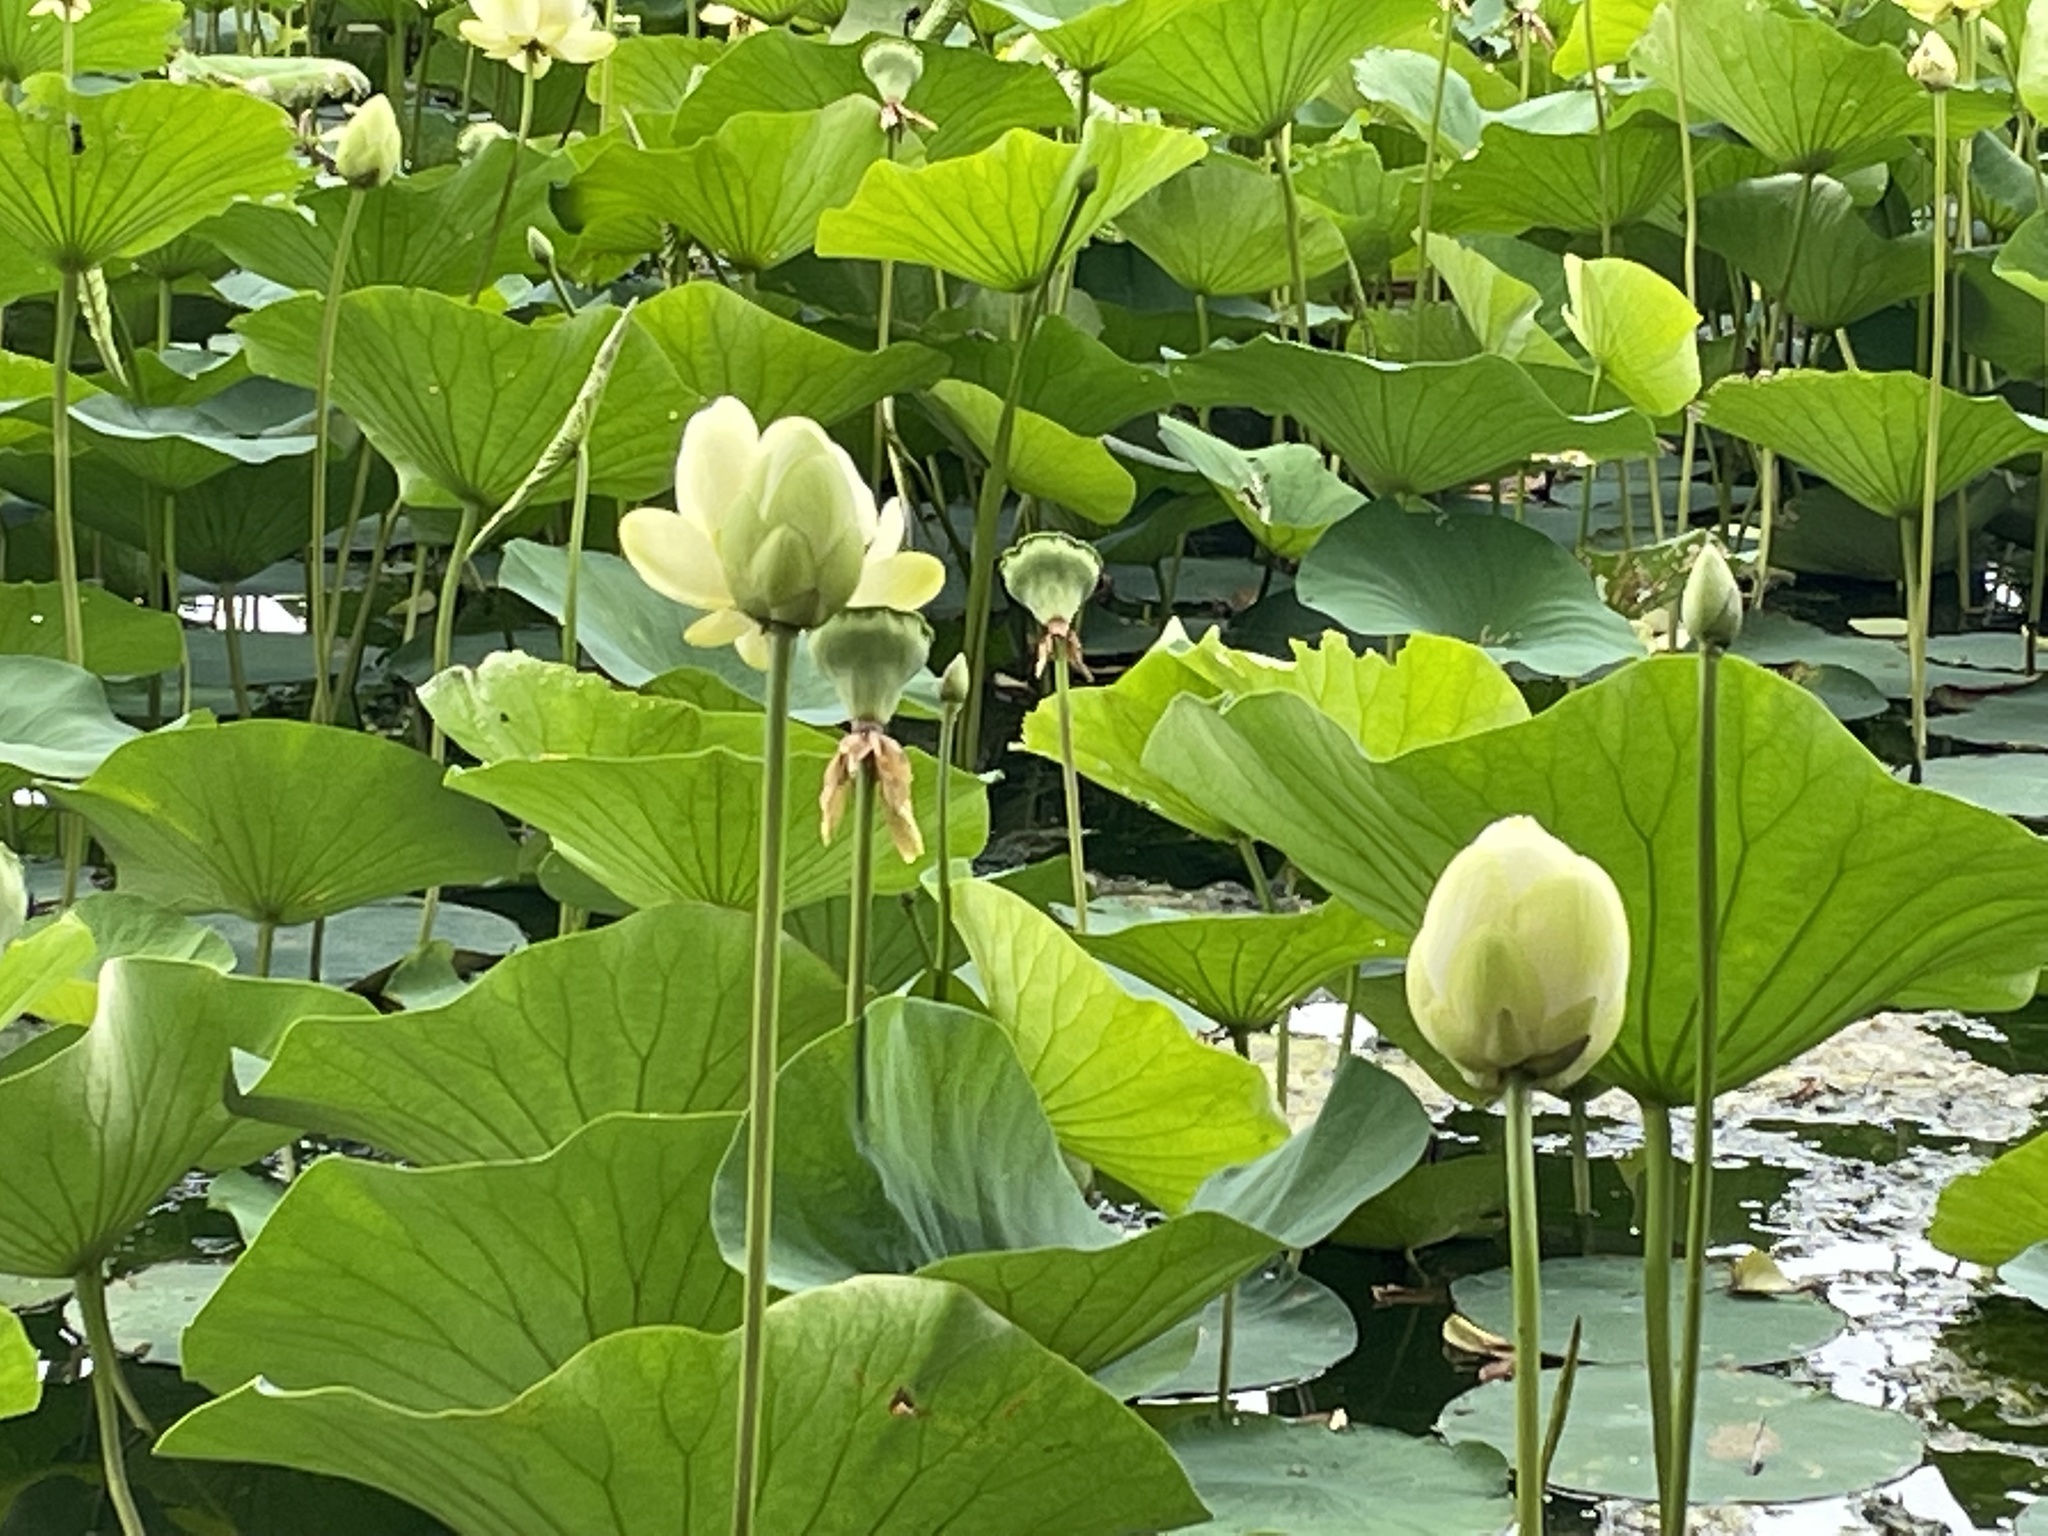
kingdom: Plantae
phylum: Tracheophyta
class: Magnoliopsida
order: Proteales
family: Nelumbonaceae
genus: Nelumbo
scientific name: Nelumbo lutea
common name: American lotus
